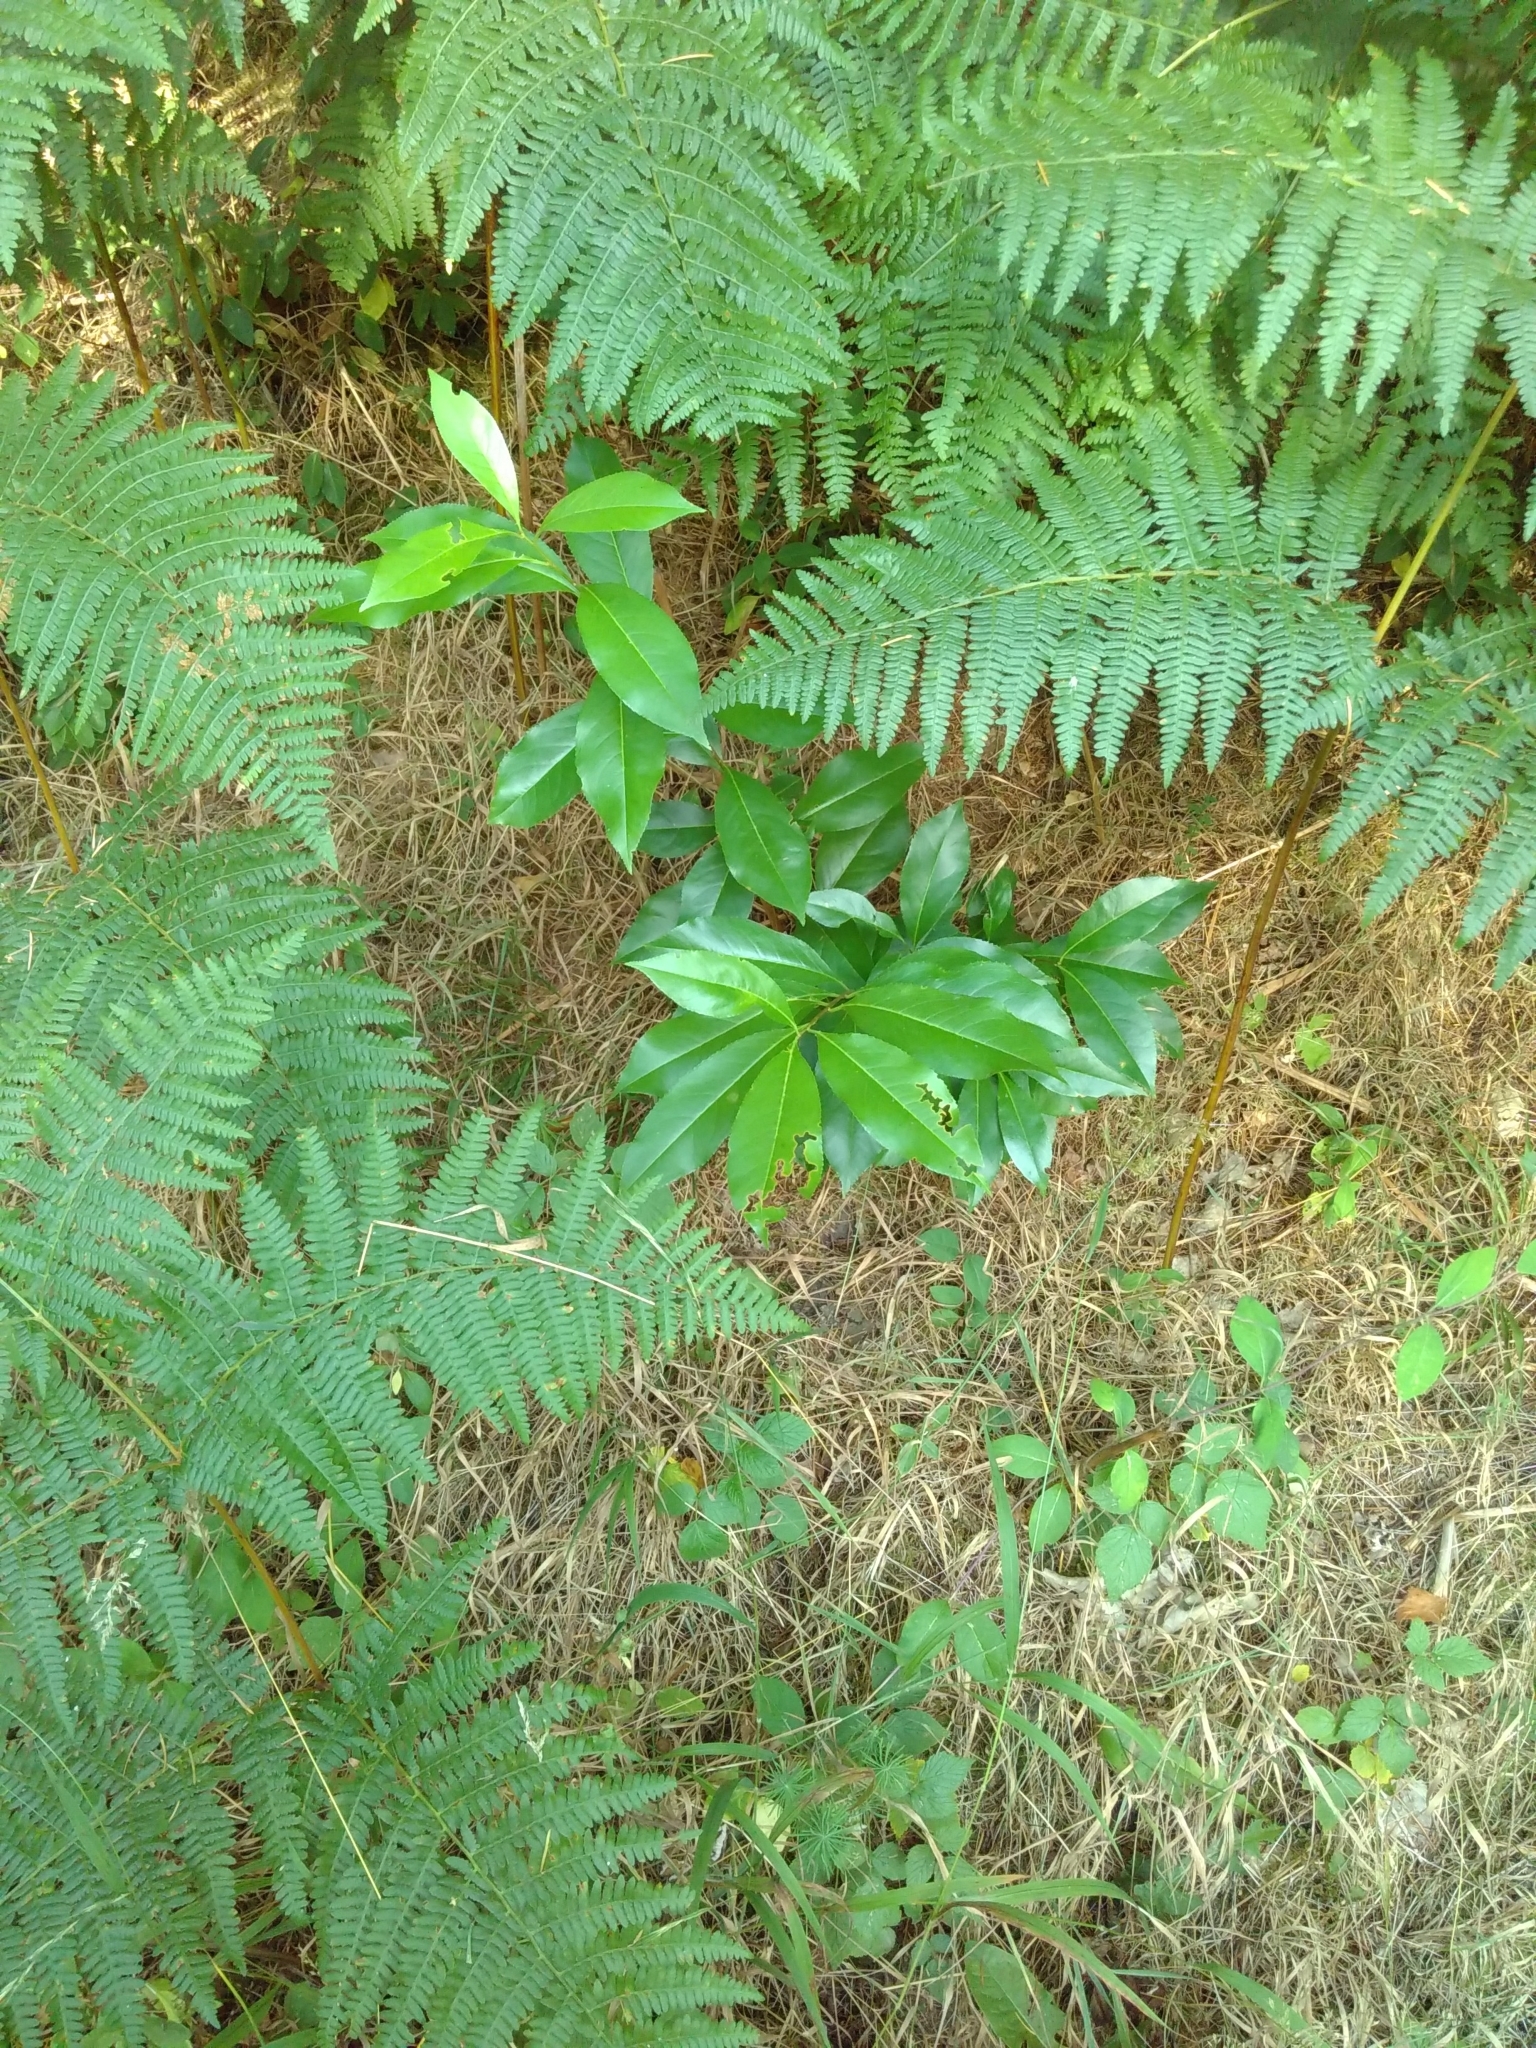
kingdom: Plantae
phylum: Tracheophyta
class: Magnoliopsida
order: Rosales
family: Rosaceae
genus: Prunus
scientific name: Prunus serotina
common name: Black cherry
